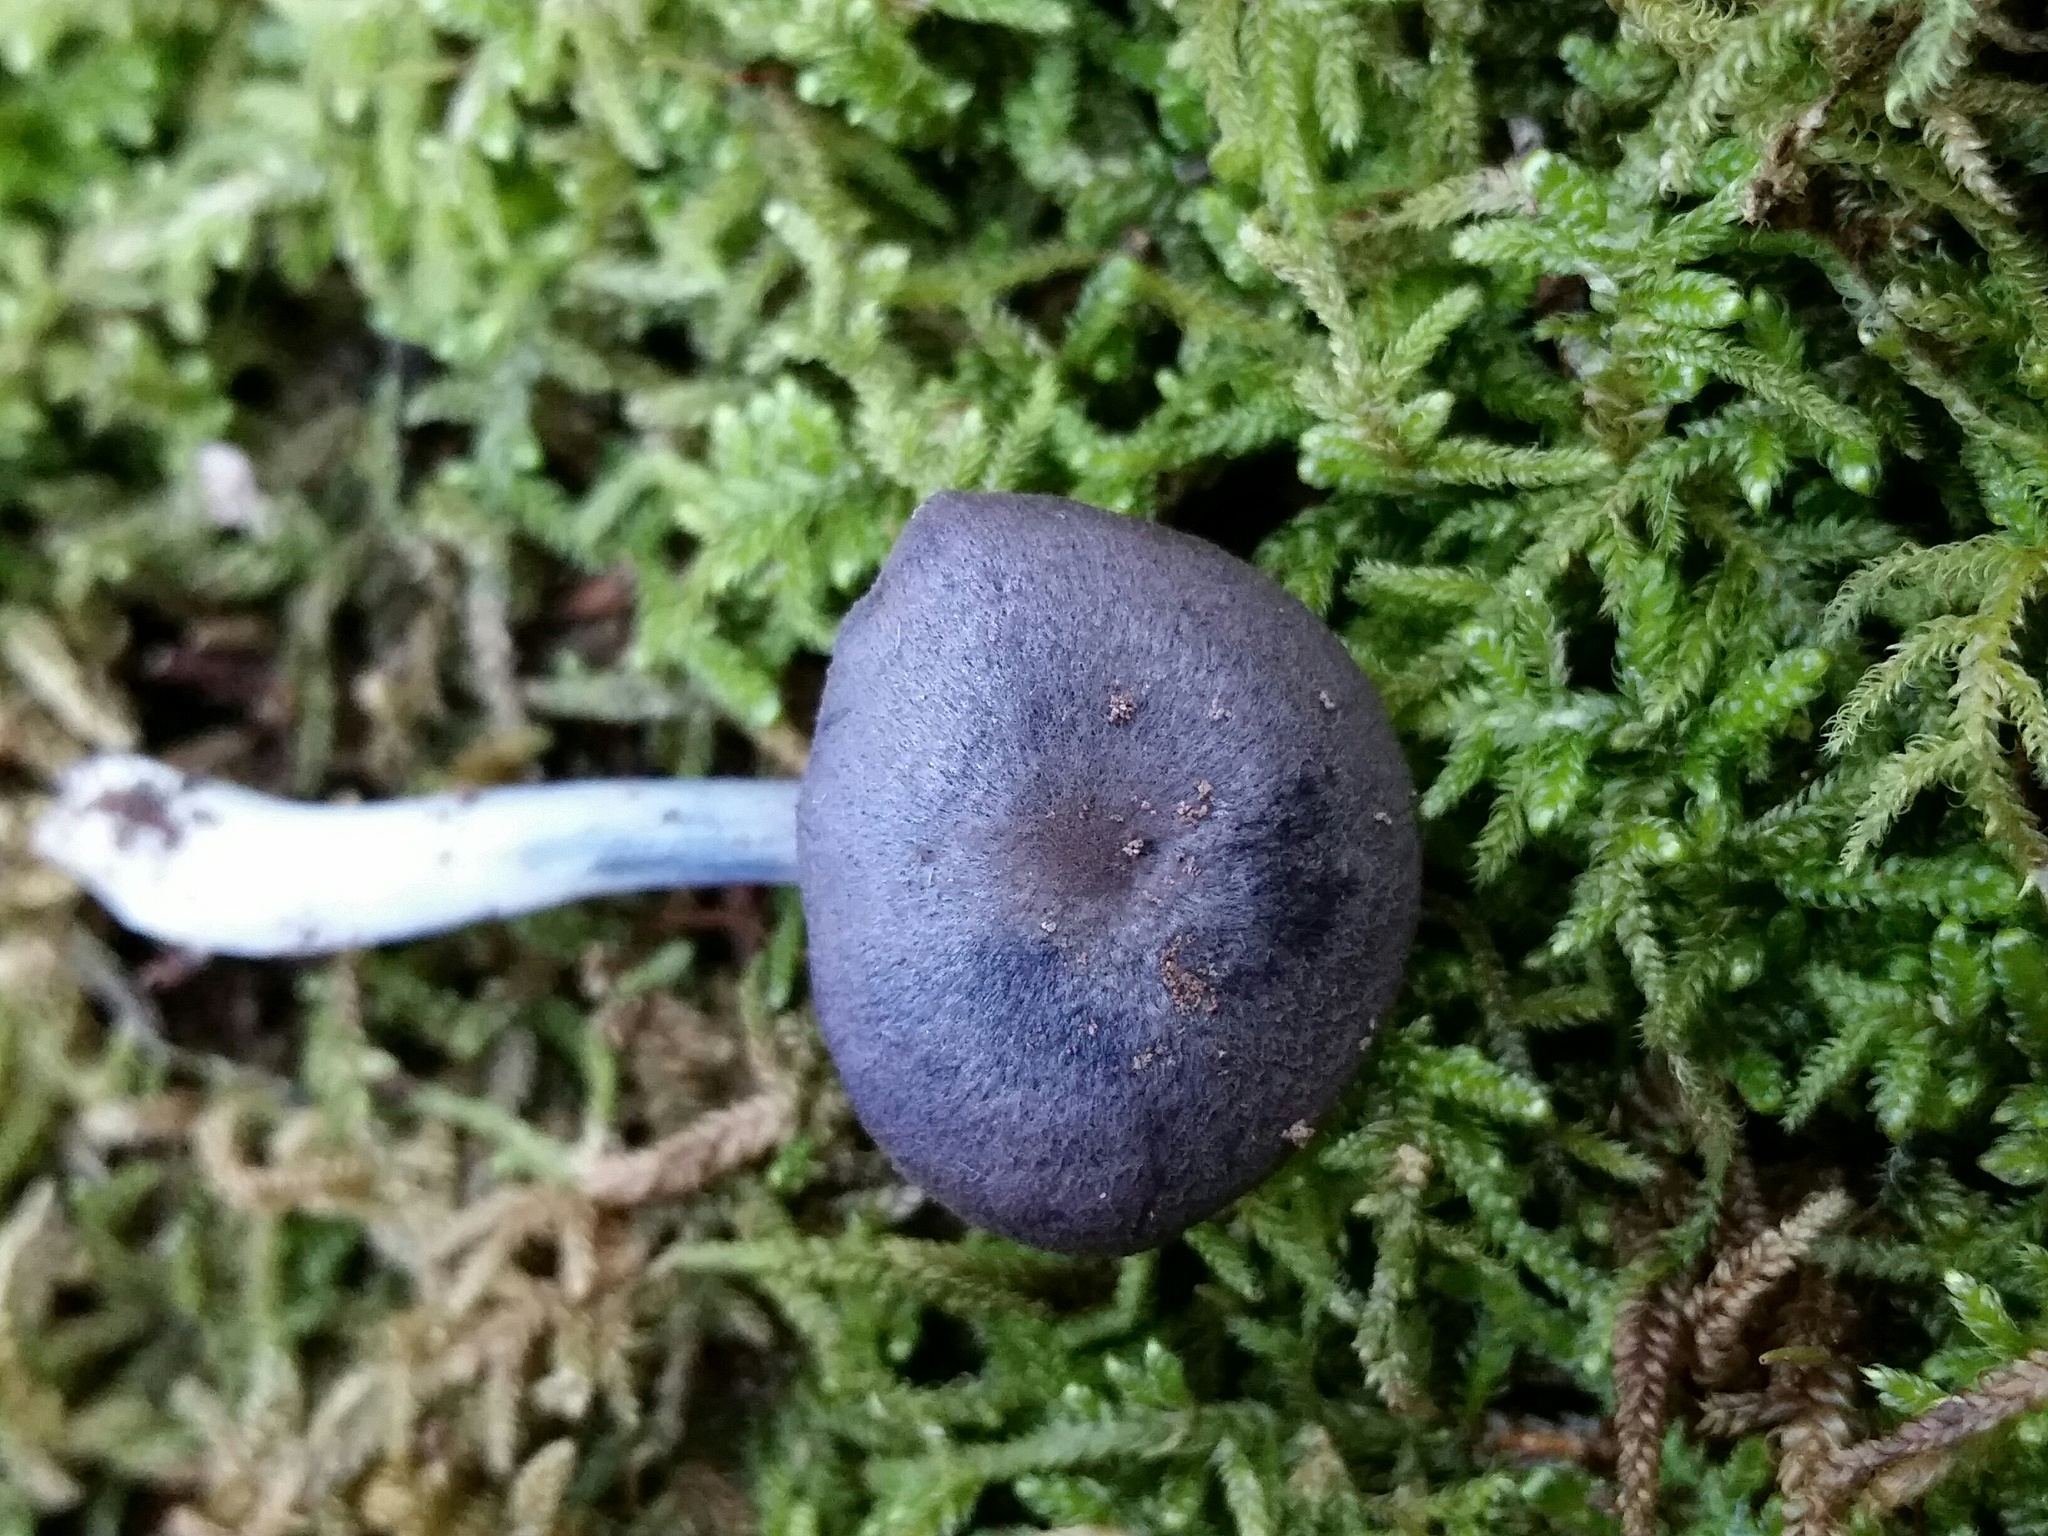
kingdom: Fungi
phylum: Basidiomycota
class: Agaricomycetes
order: Agaricales
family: Entolomataceae
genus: Entoloma
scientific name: Entoloma occidentale
